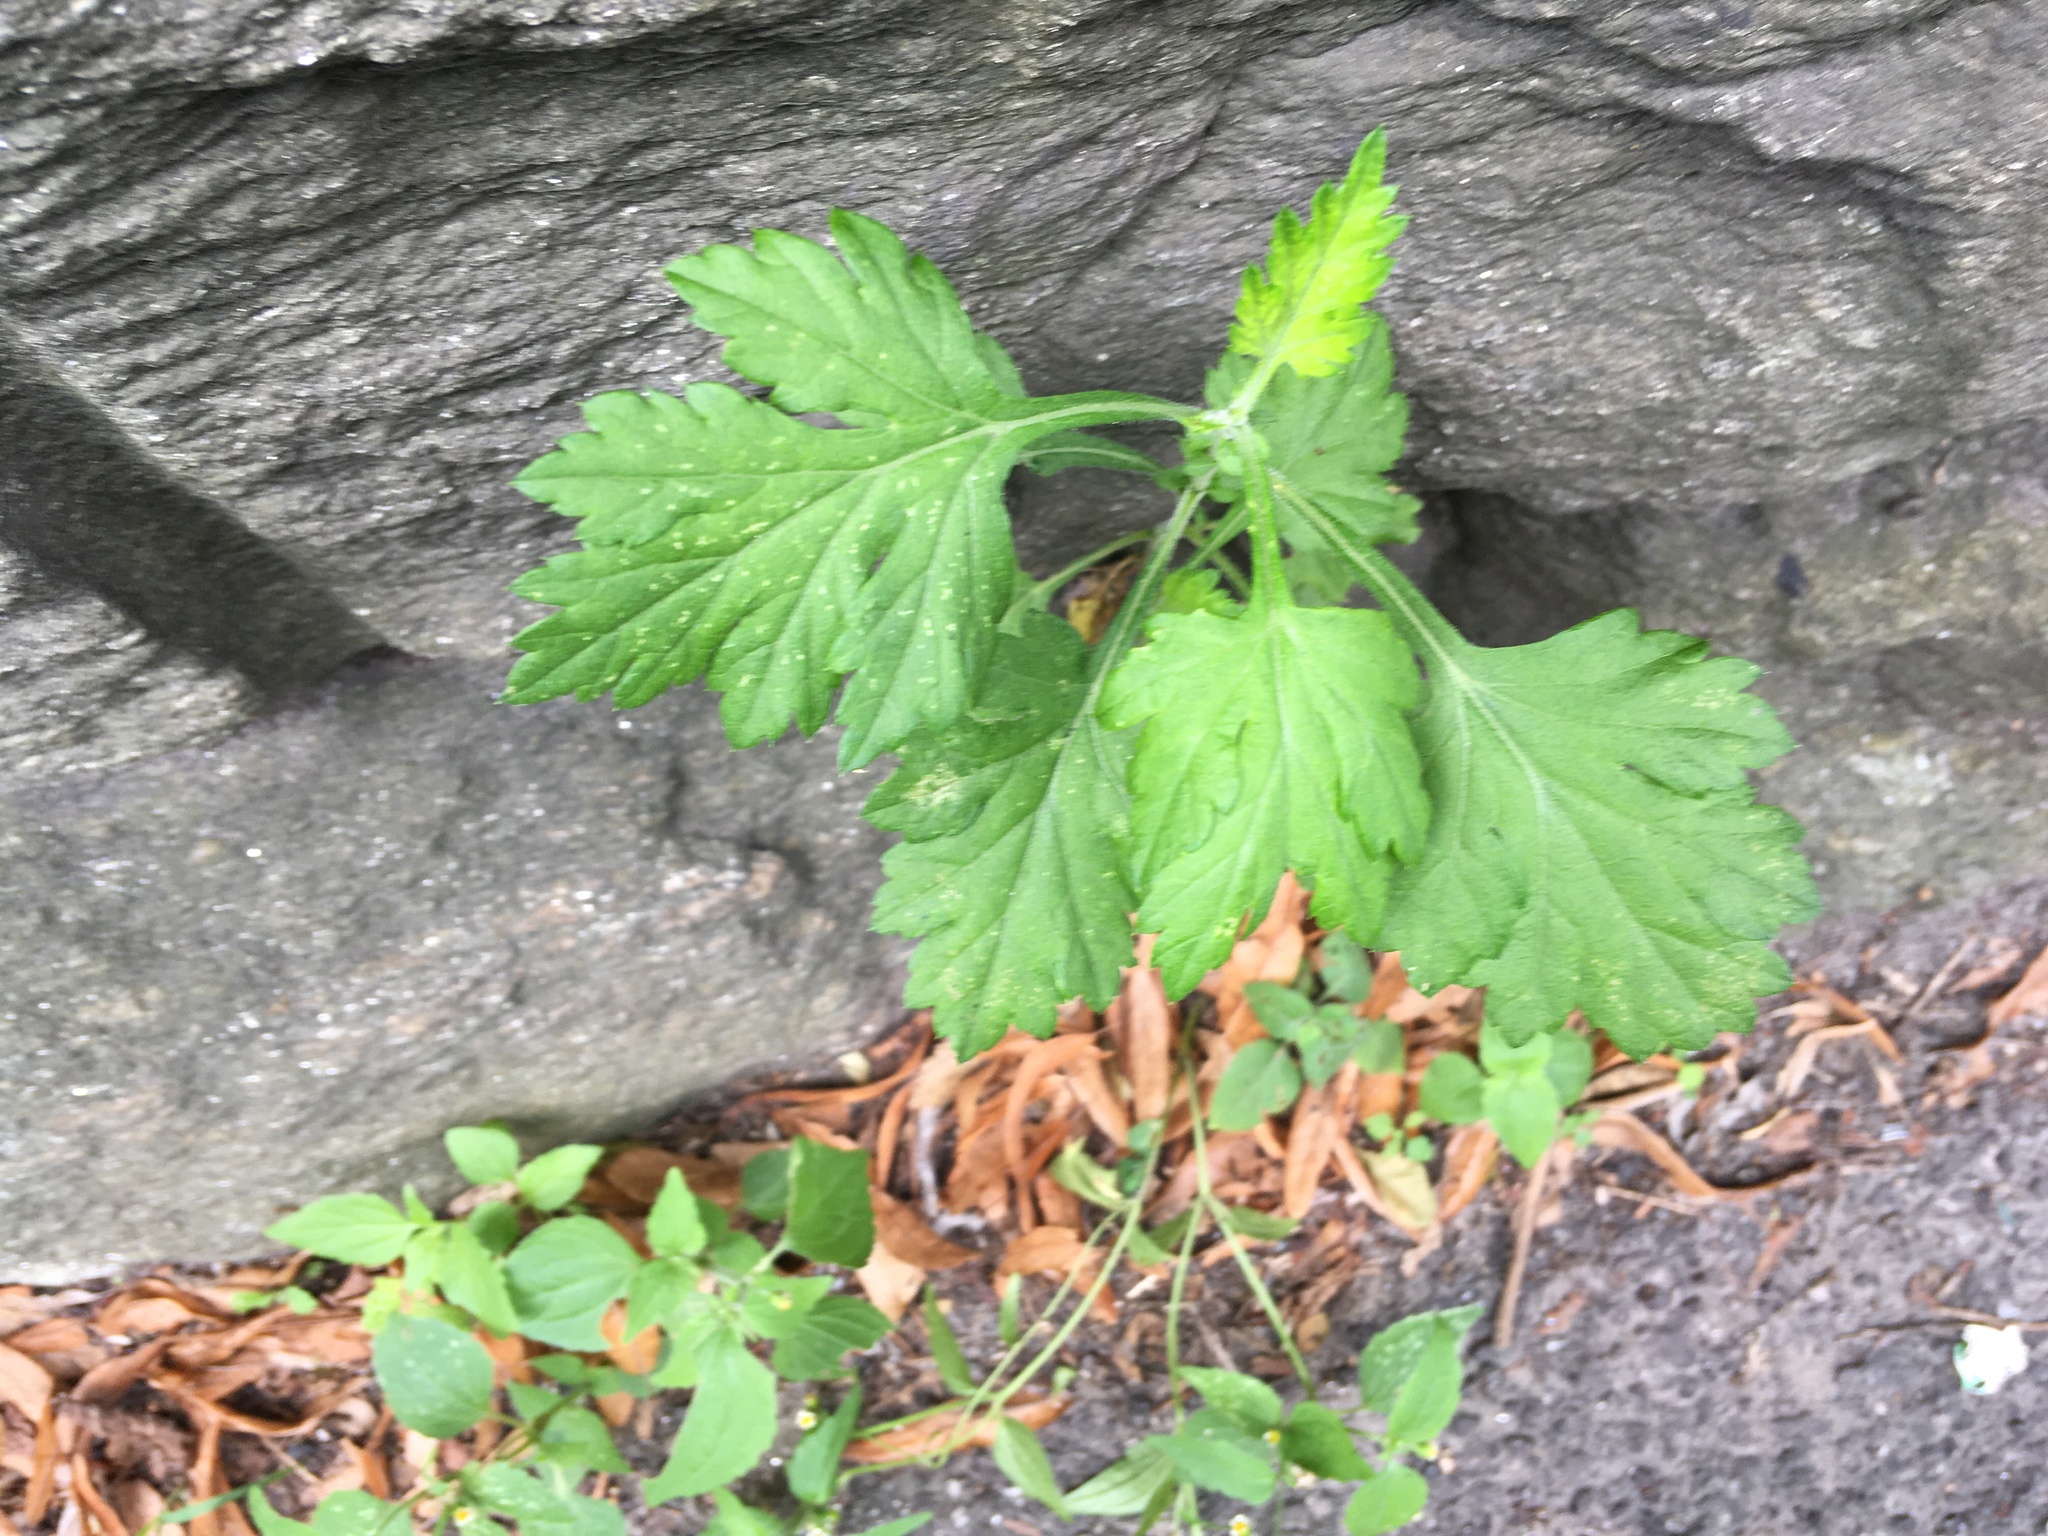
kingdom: Plantae
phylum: Tracheophyta
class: Magnoliopsida
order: Asterales
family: Asteraceae
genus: Artemisia
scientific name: Artemisia vulgaris
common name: Mugwort
